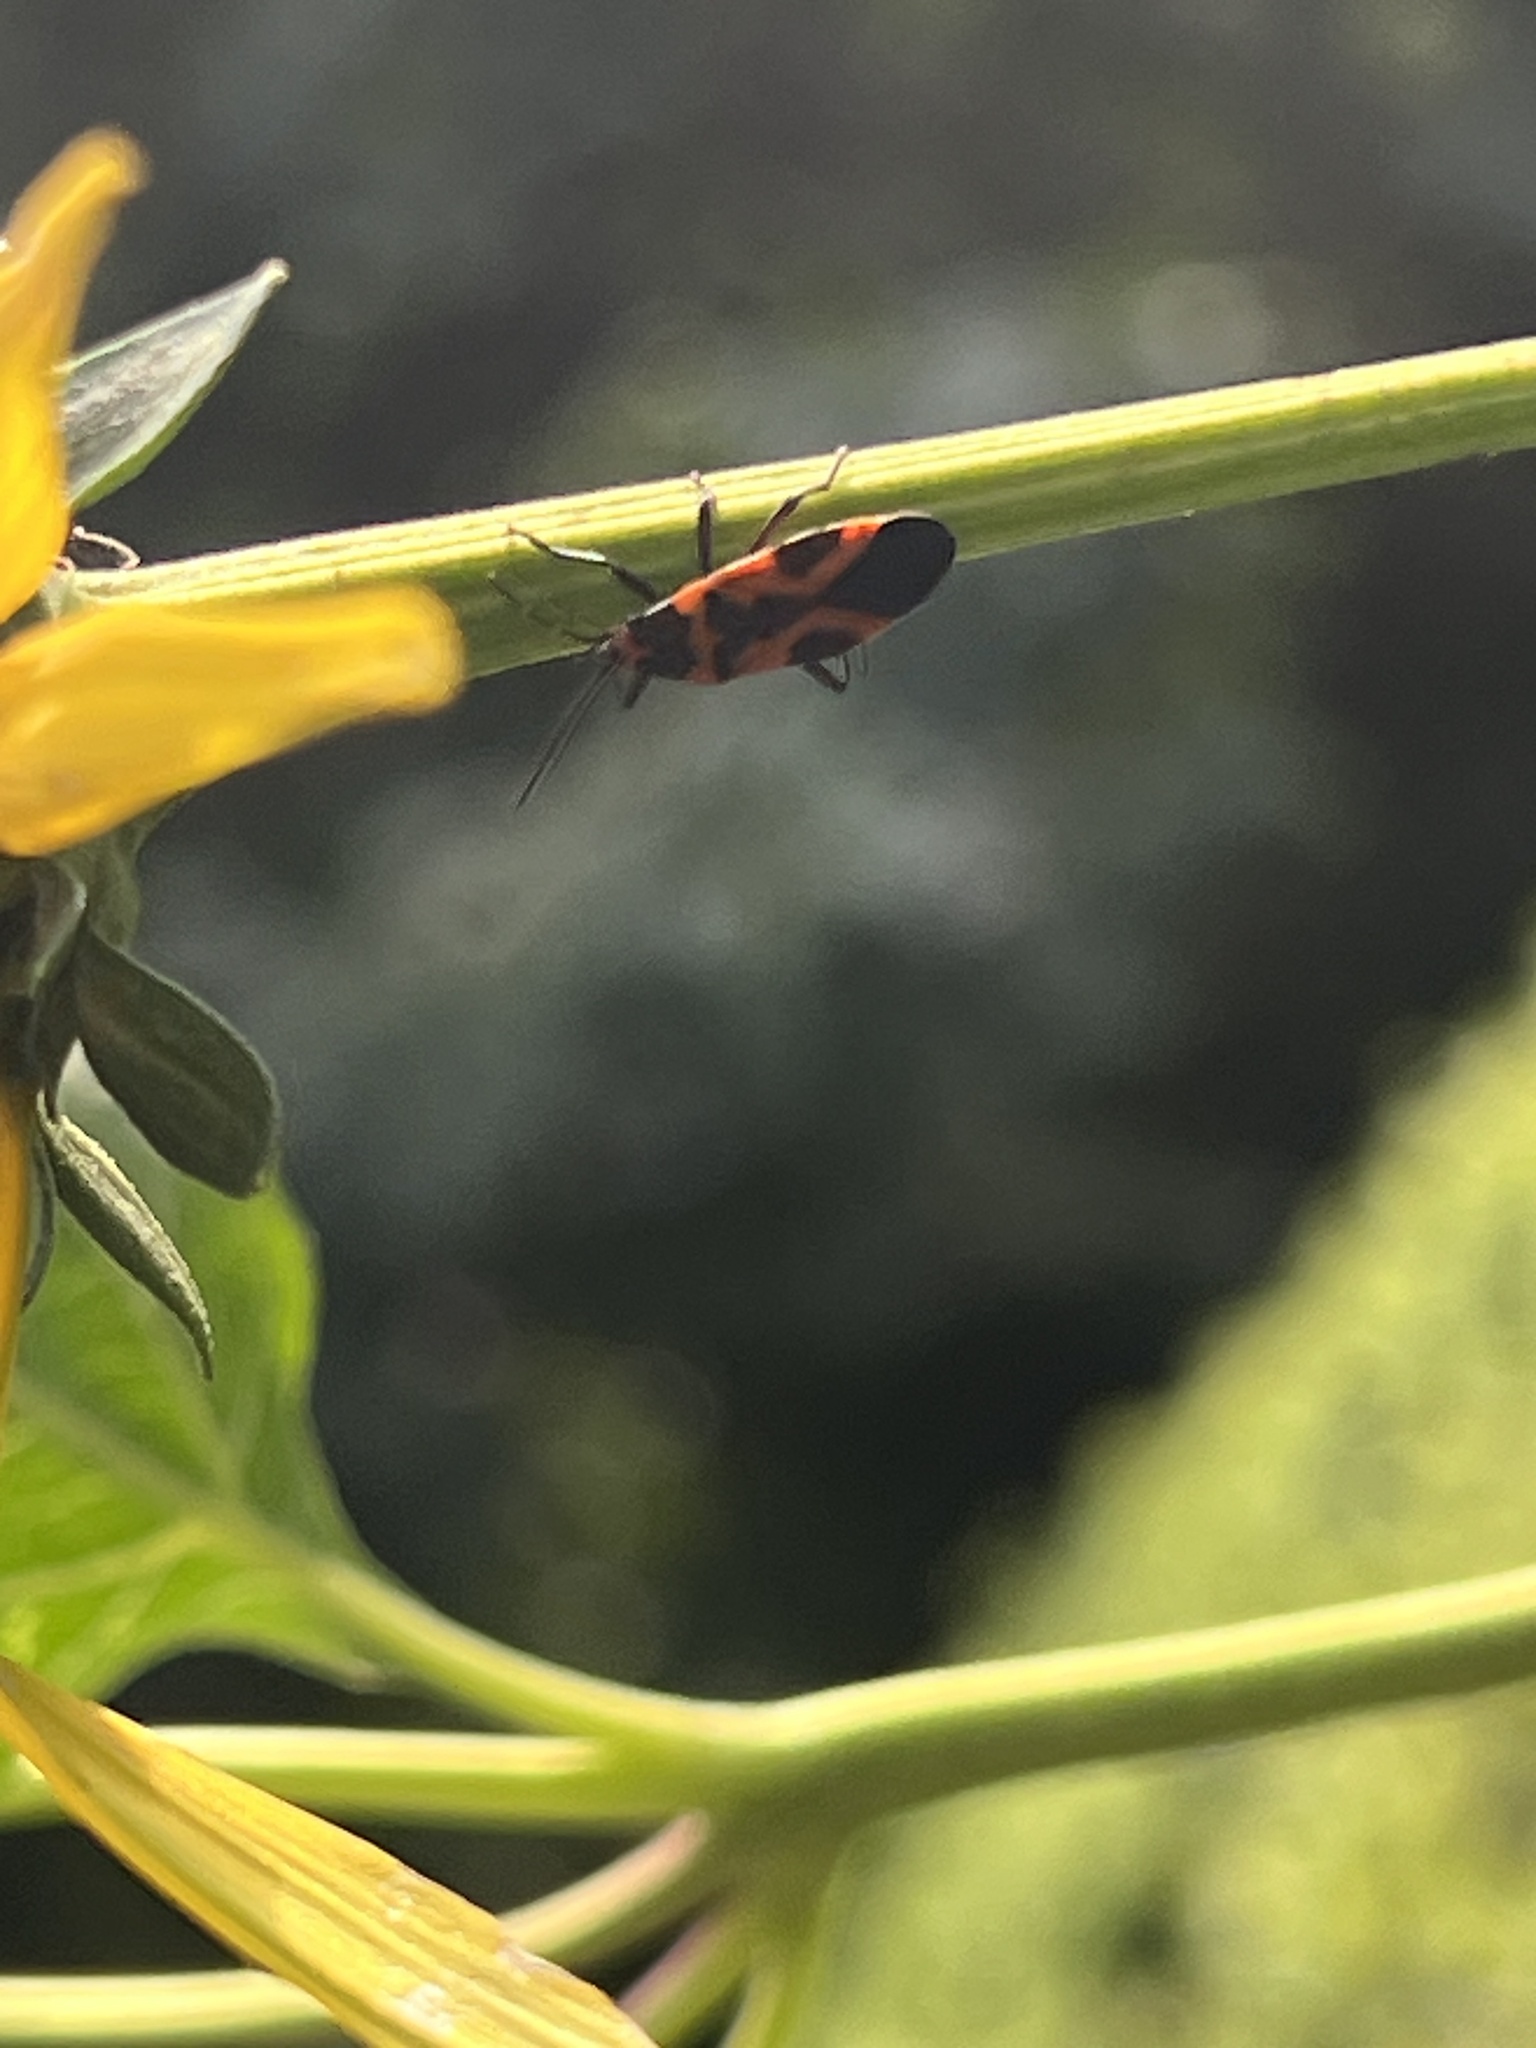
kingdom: Animalia
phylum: Arthropoda
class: Insecta
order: Hemiptera
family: Lygaeidae
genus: Lygaeus
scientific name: Lygaeus turcicus
